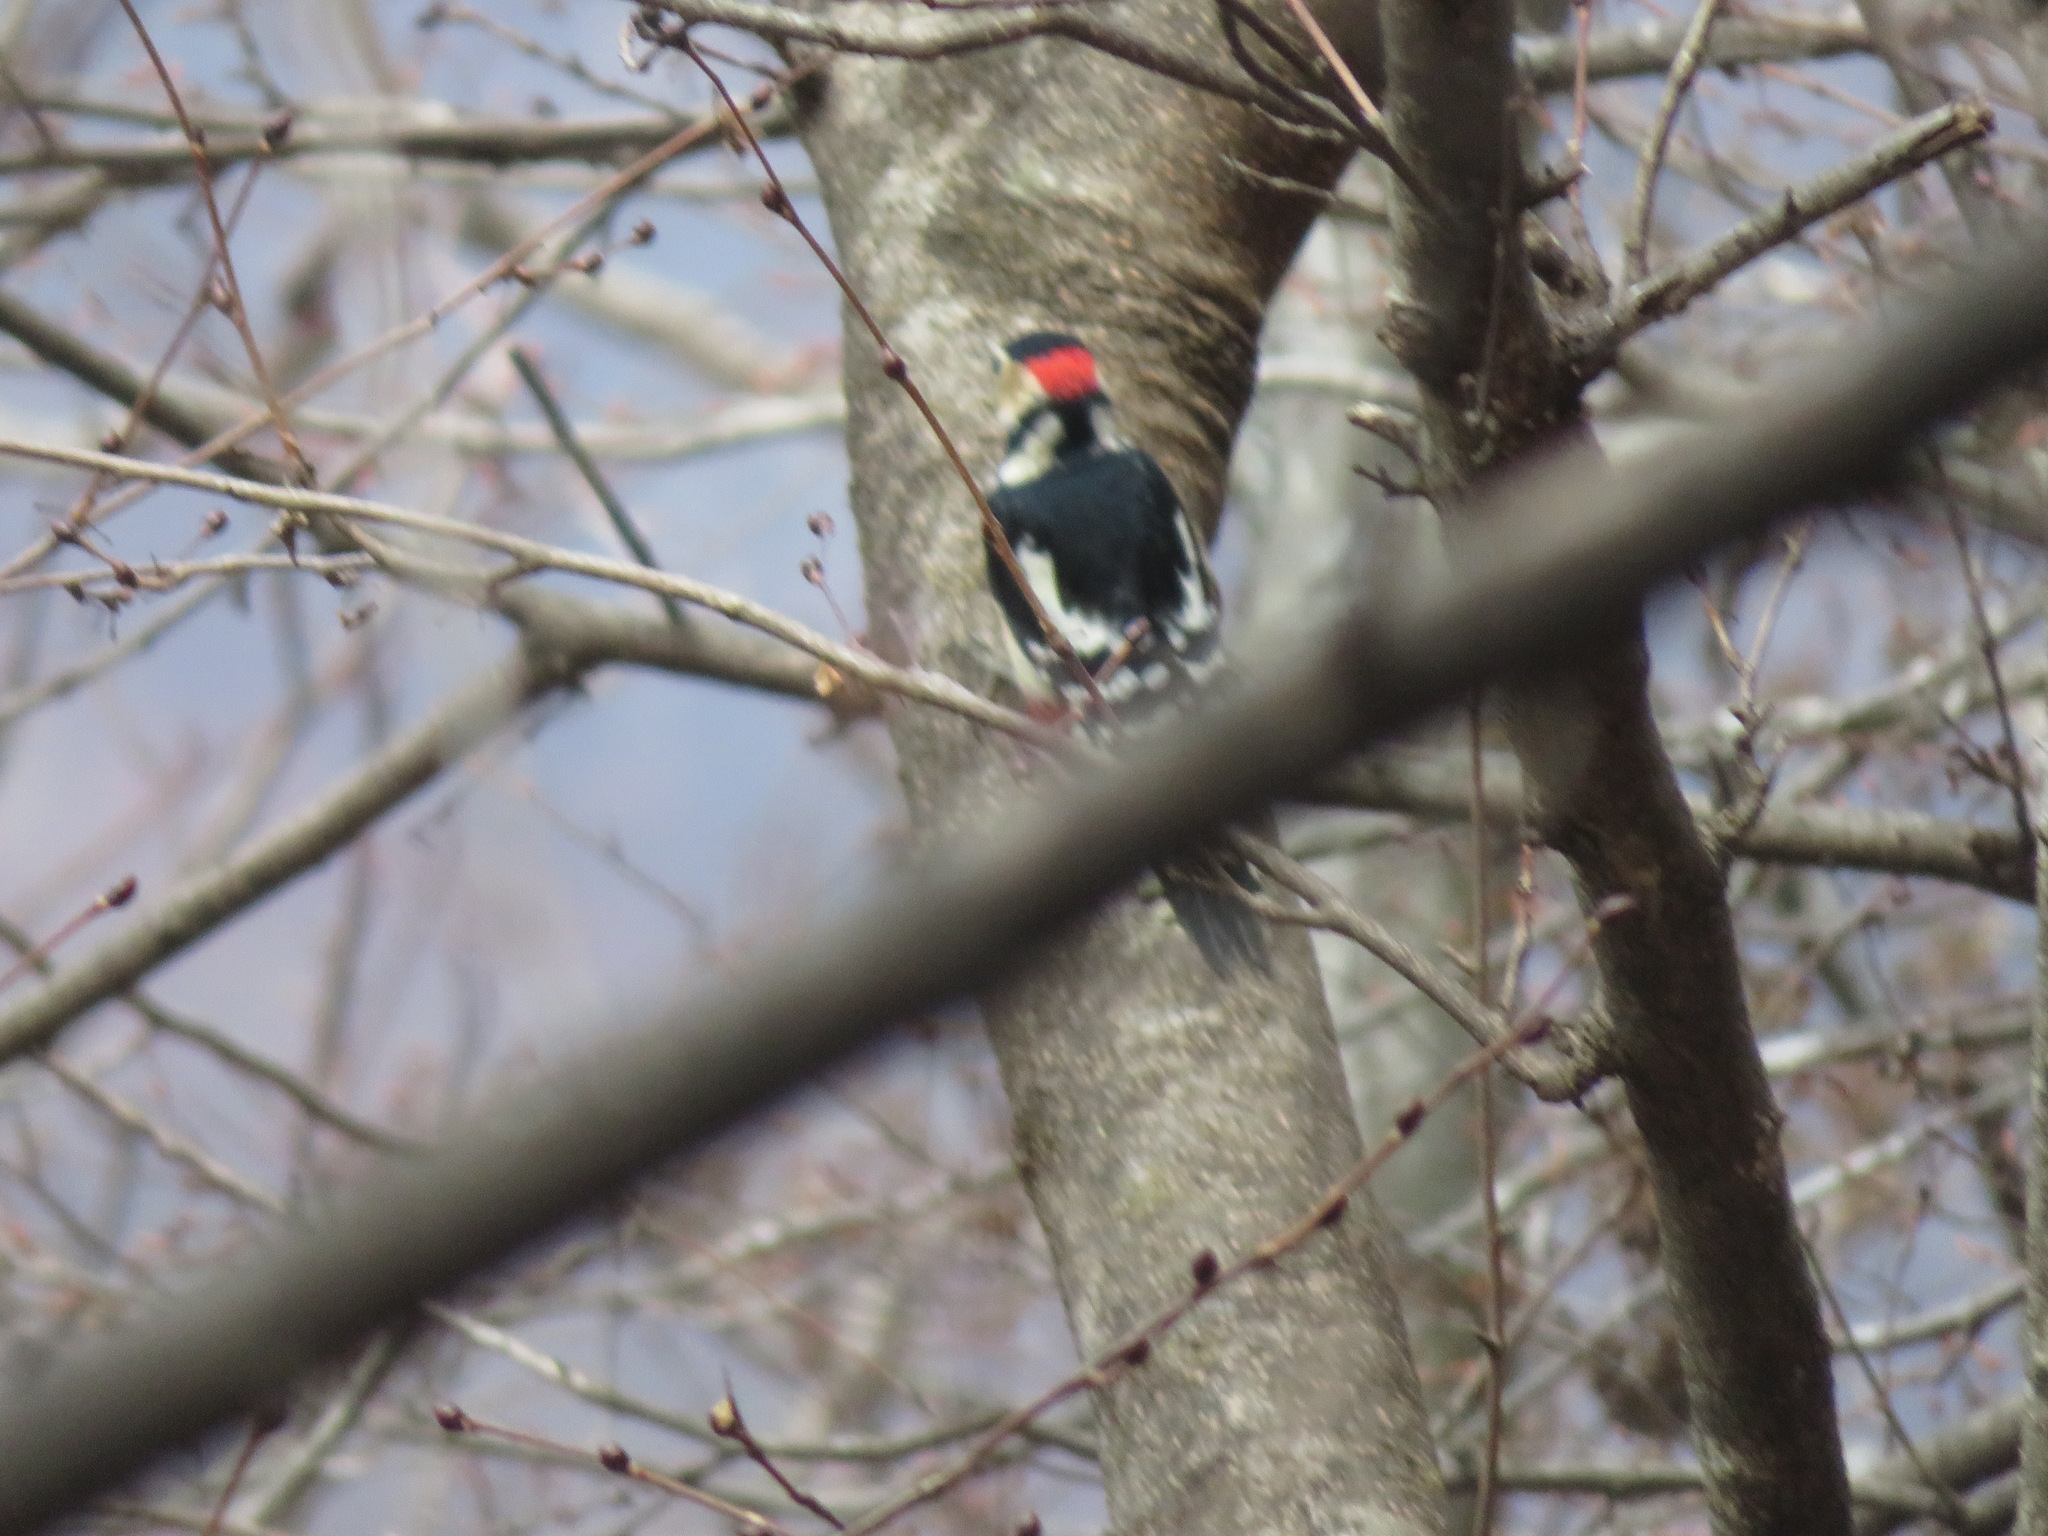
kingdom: Animalia
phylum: Chordata
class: Aves
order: Piciformes
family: Picidae
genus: Dendrocopos
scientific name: Dendrocopos major
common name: Great spotted woodpecker
